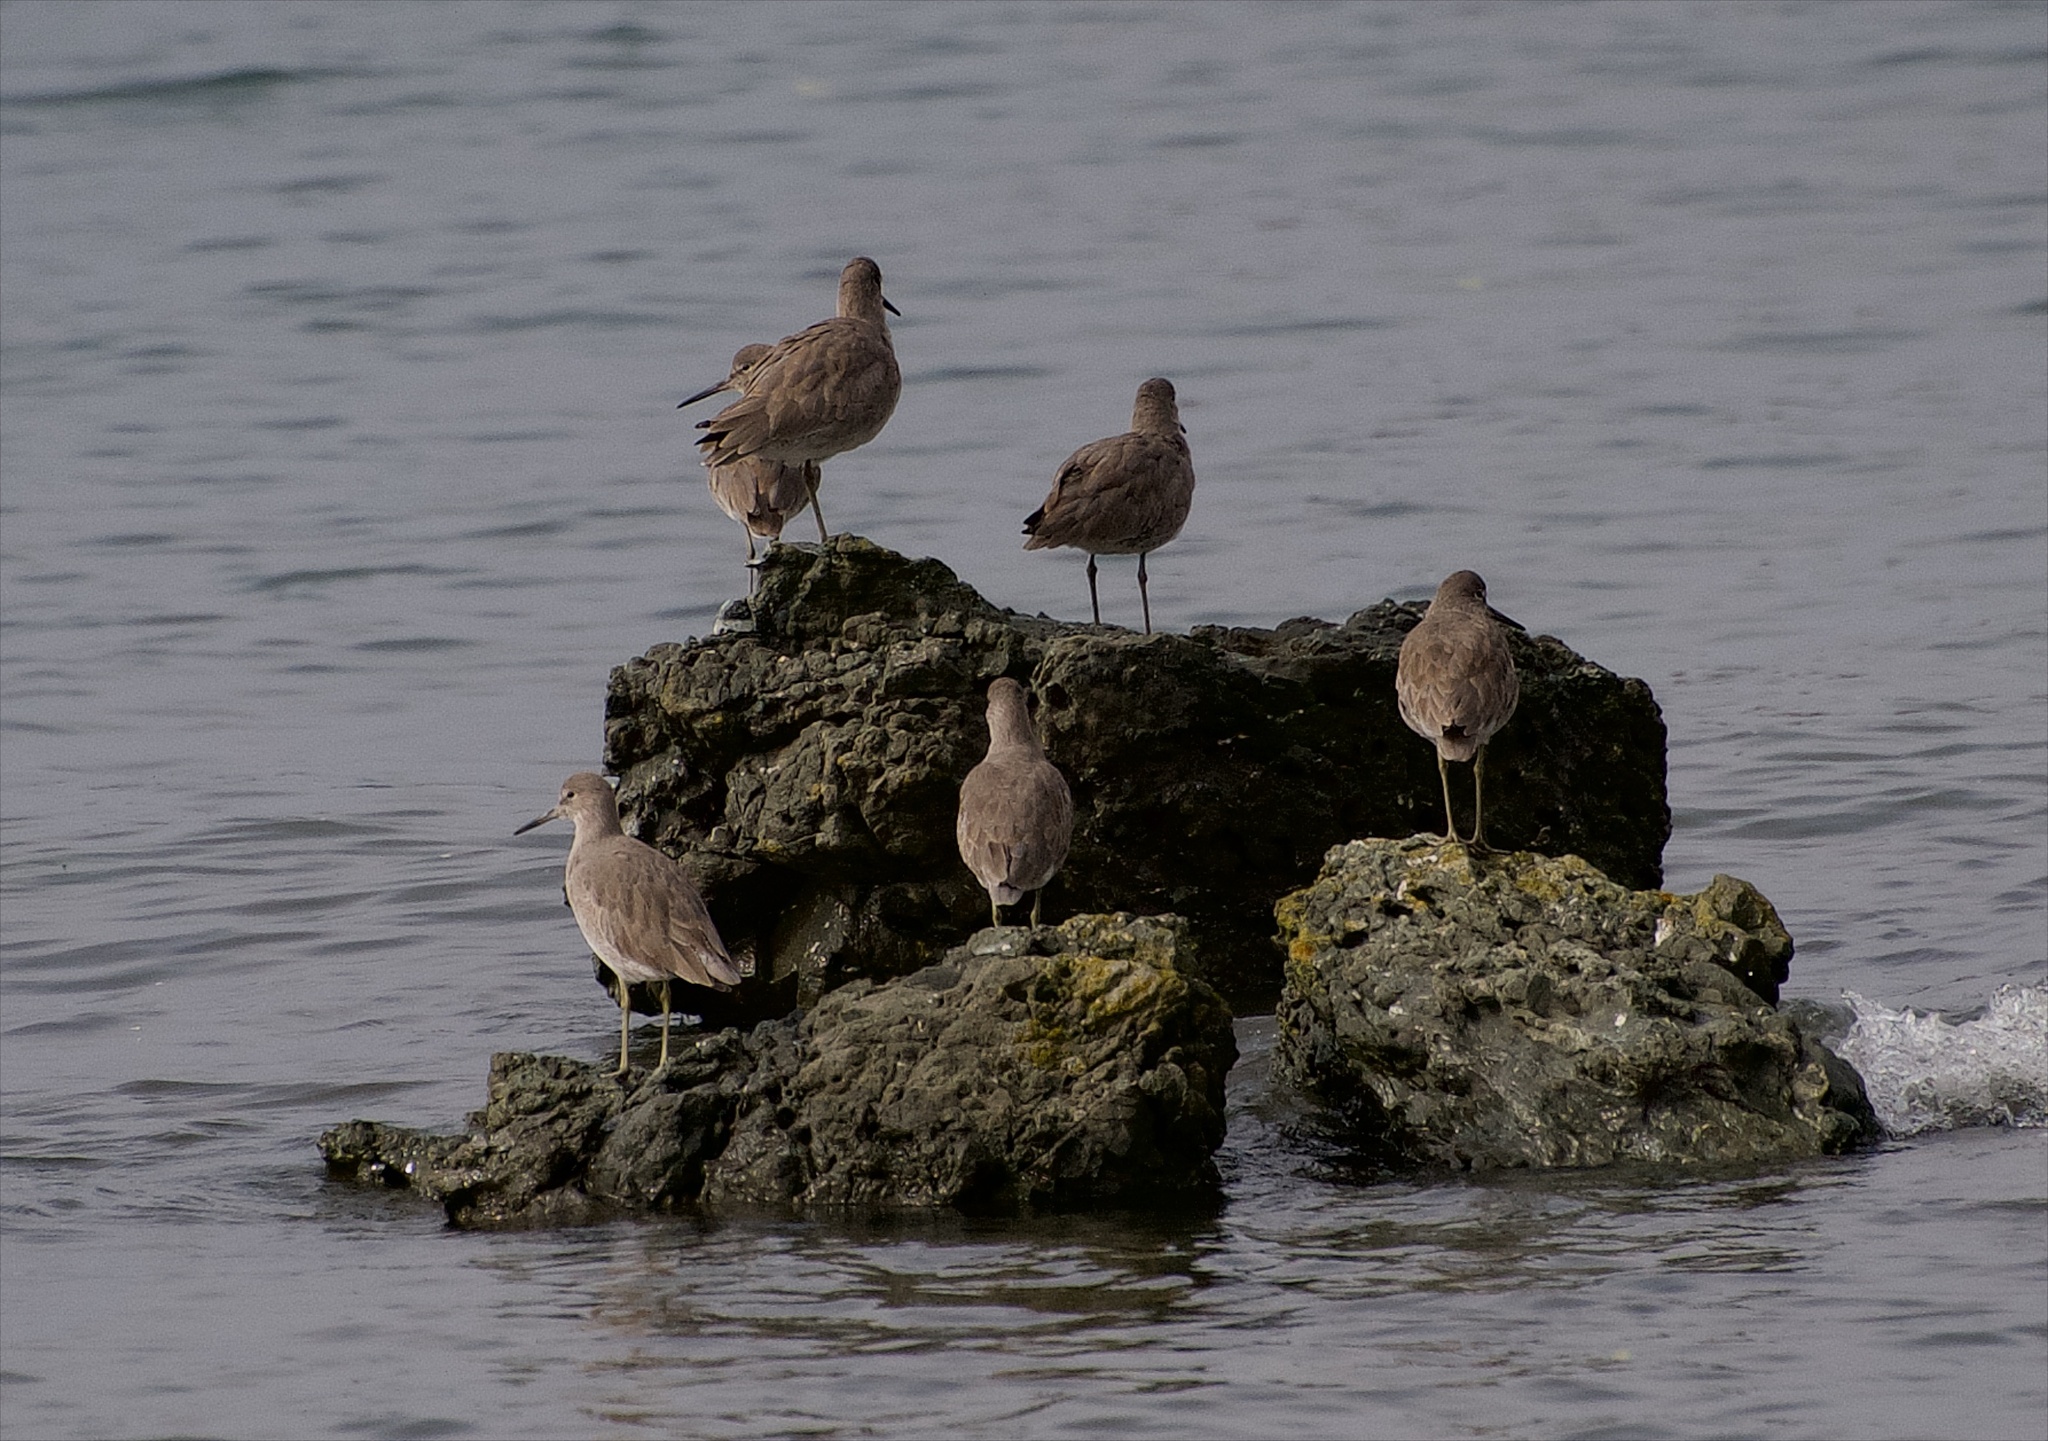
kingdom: Animalia
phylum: Chordata
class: Aves
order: Charadriiformes
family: Scolopacidae
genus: Tringa
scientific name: Tringa semipalmata
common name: Willet
